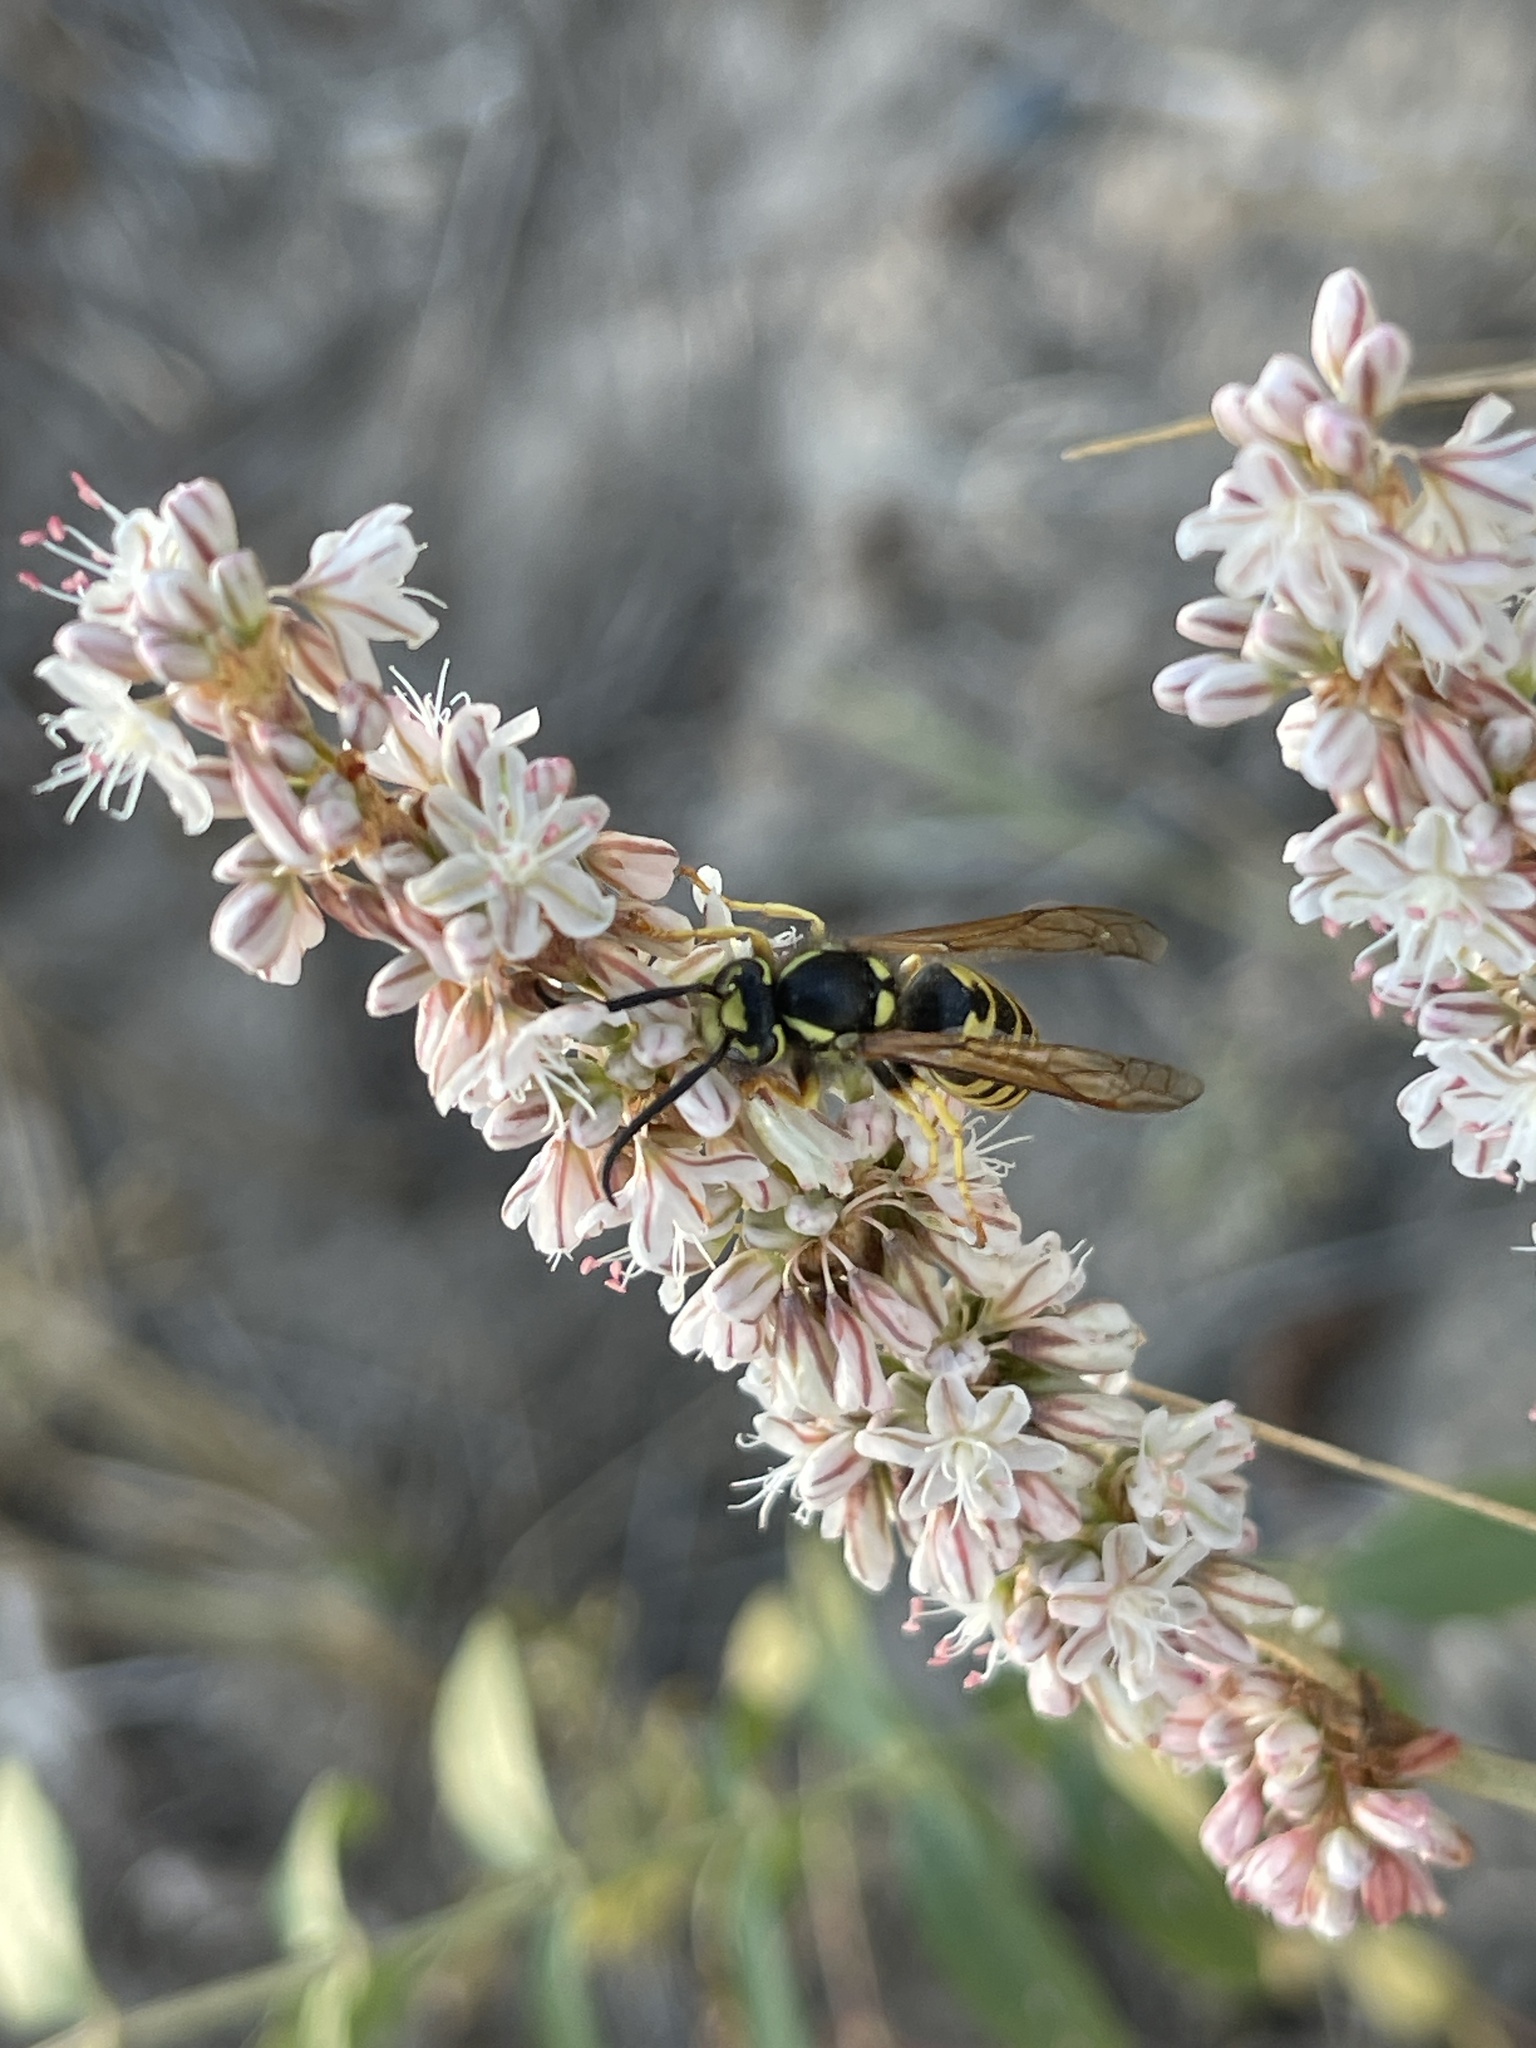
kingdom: Animalia
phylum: Arthropoda
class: Insecta
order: Hymenoptera
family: Vespidae
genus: Vespula
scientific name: Vespula atropilosa
